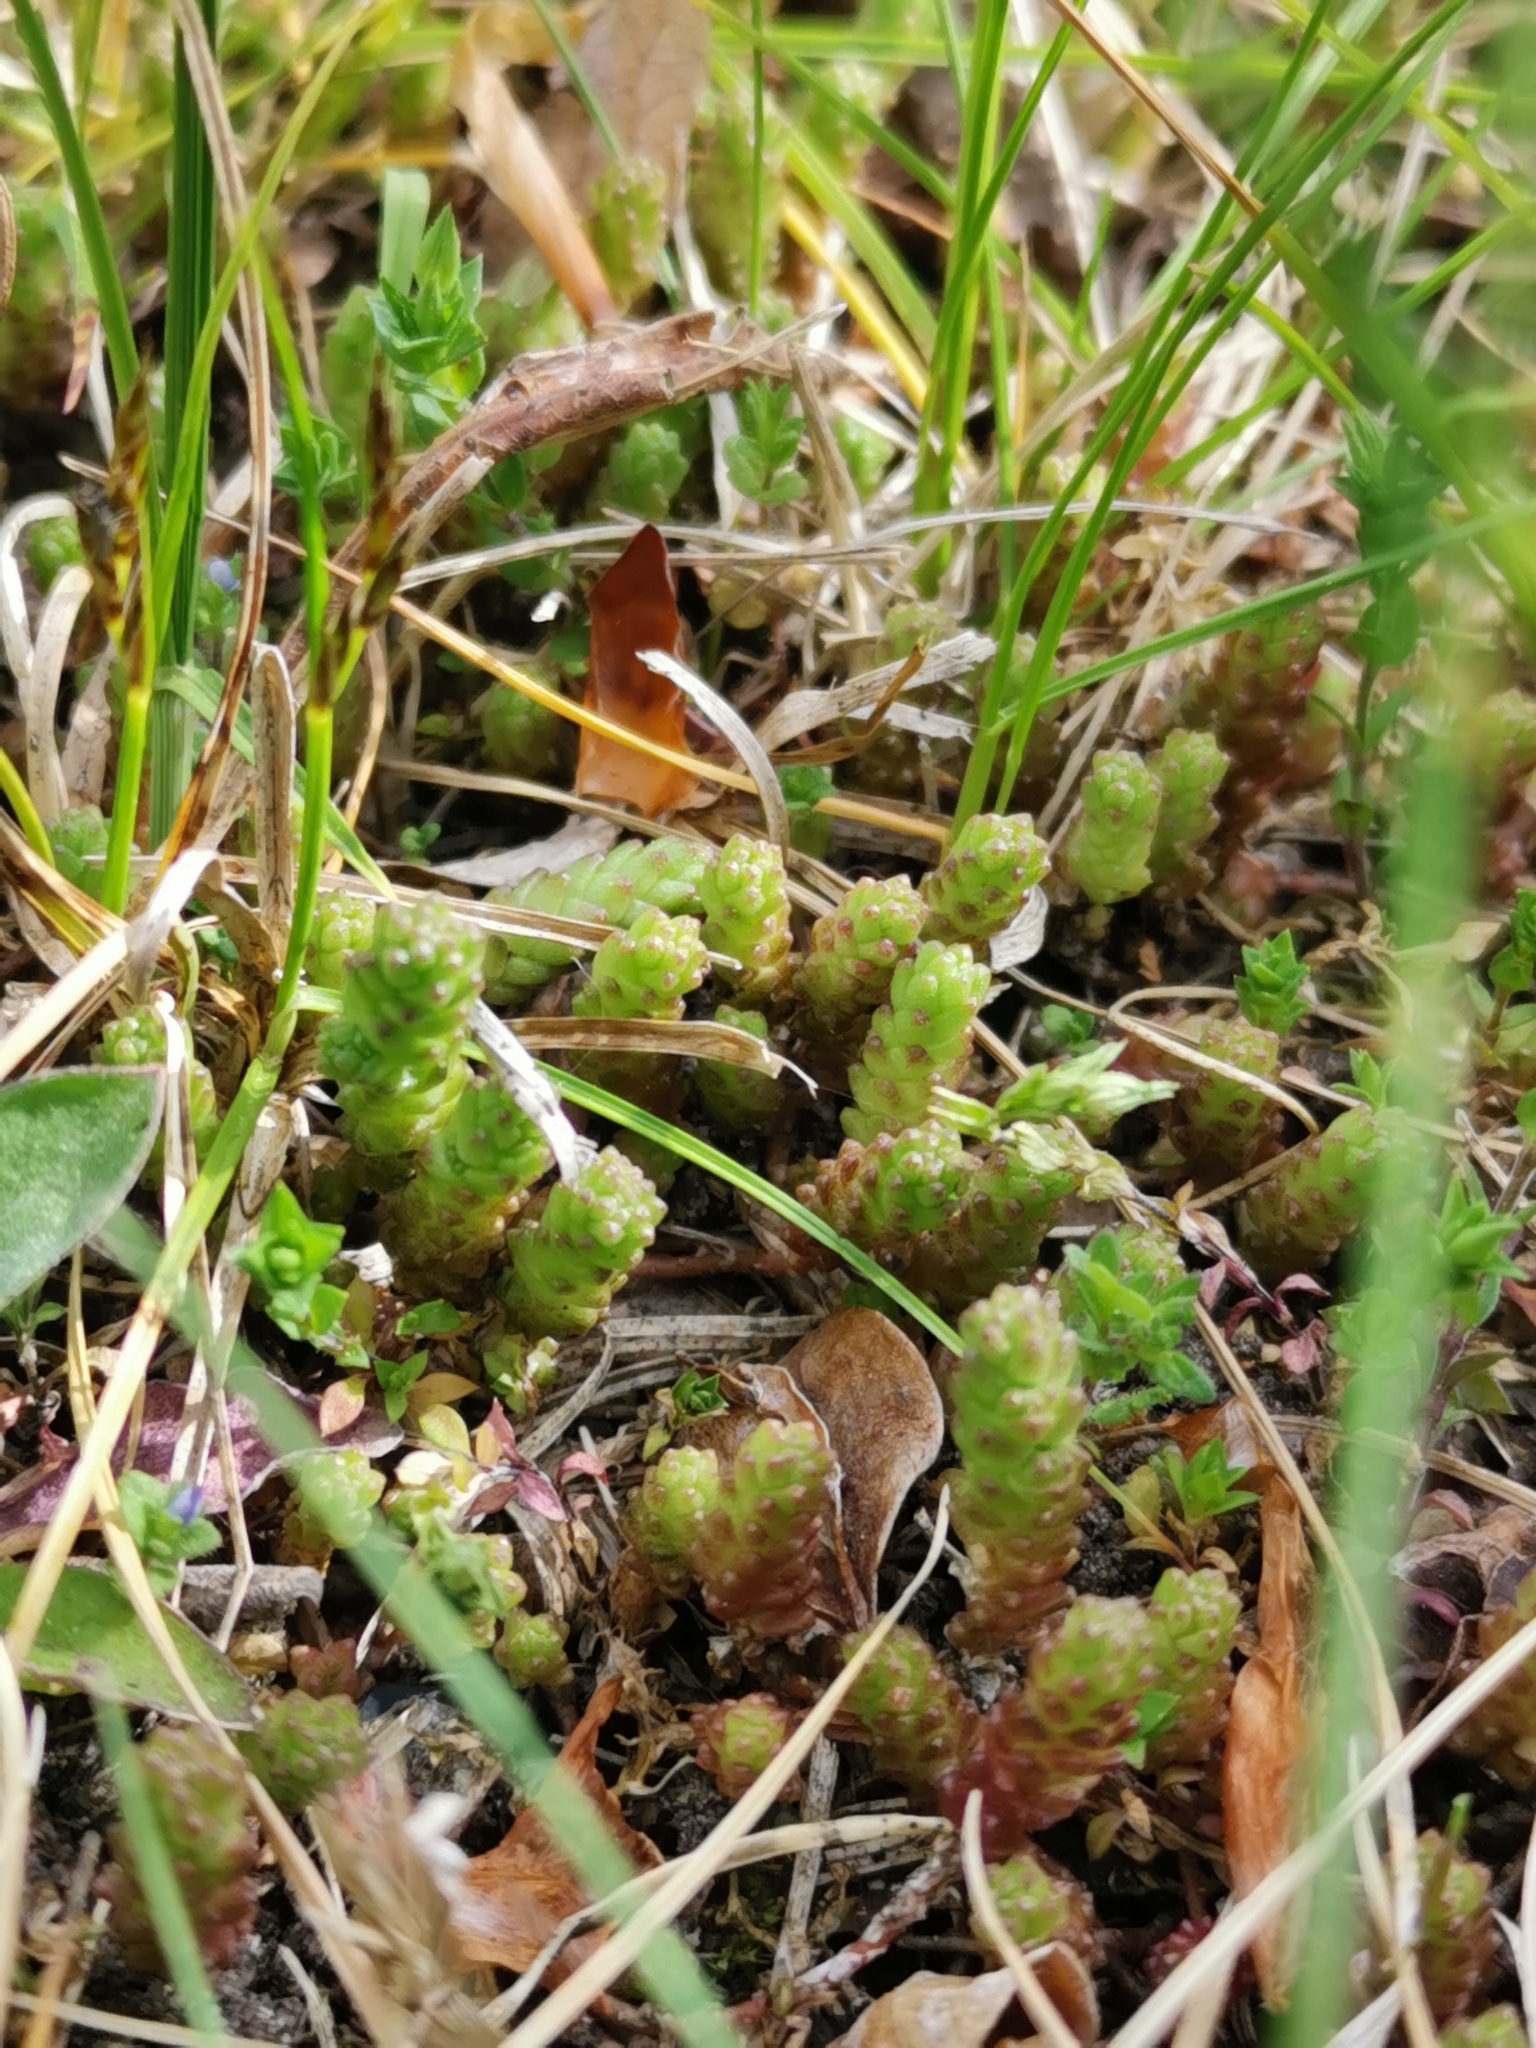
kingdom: Plantae
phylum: Tracheophyta
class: Magnoliopsida
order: Saxifragales
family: Crassulaceae
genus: Sedum
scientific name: Sedum acre
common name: Biting stonecrop
